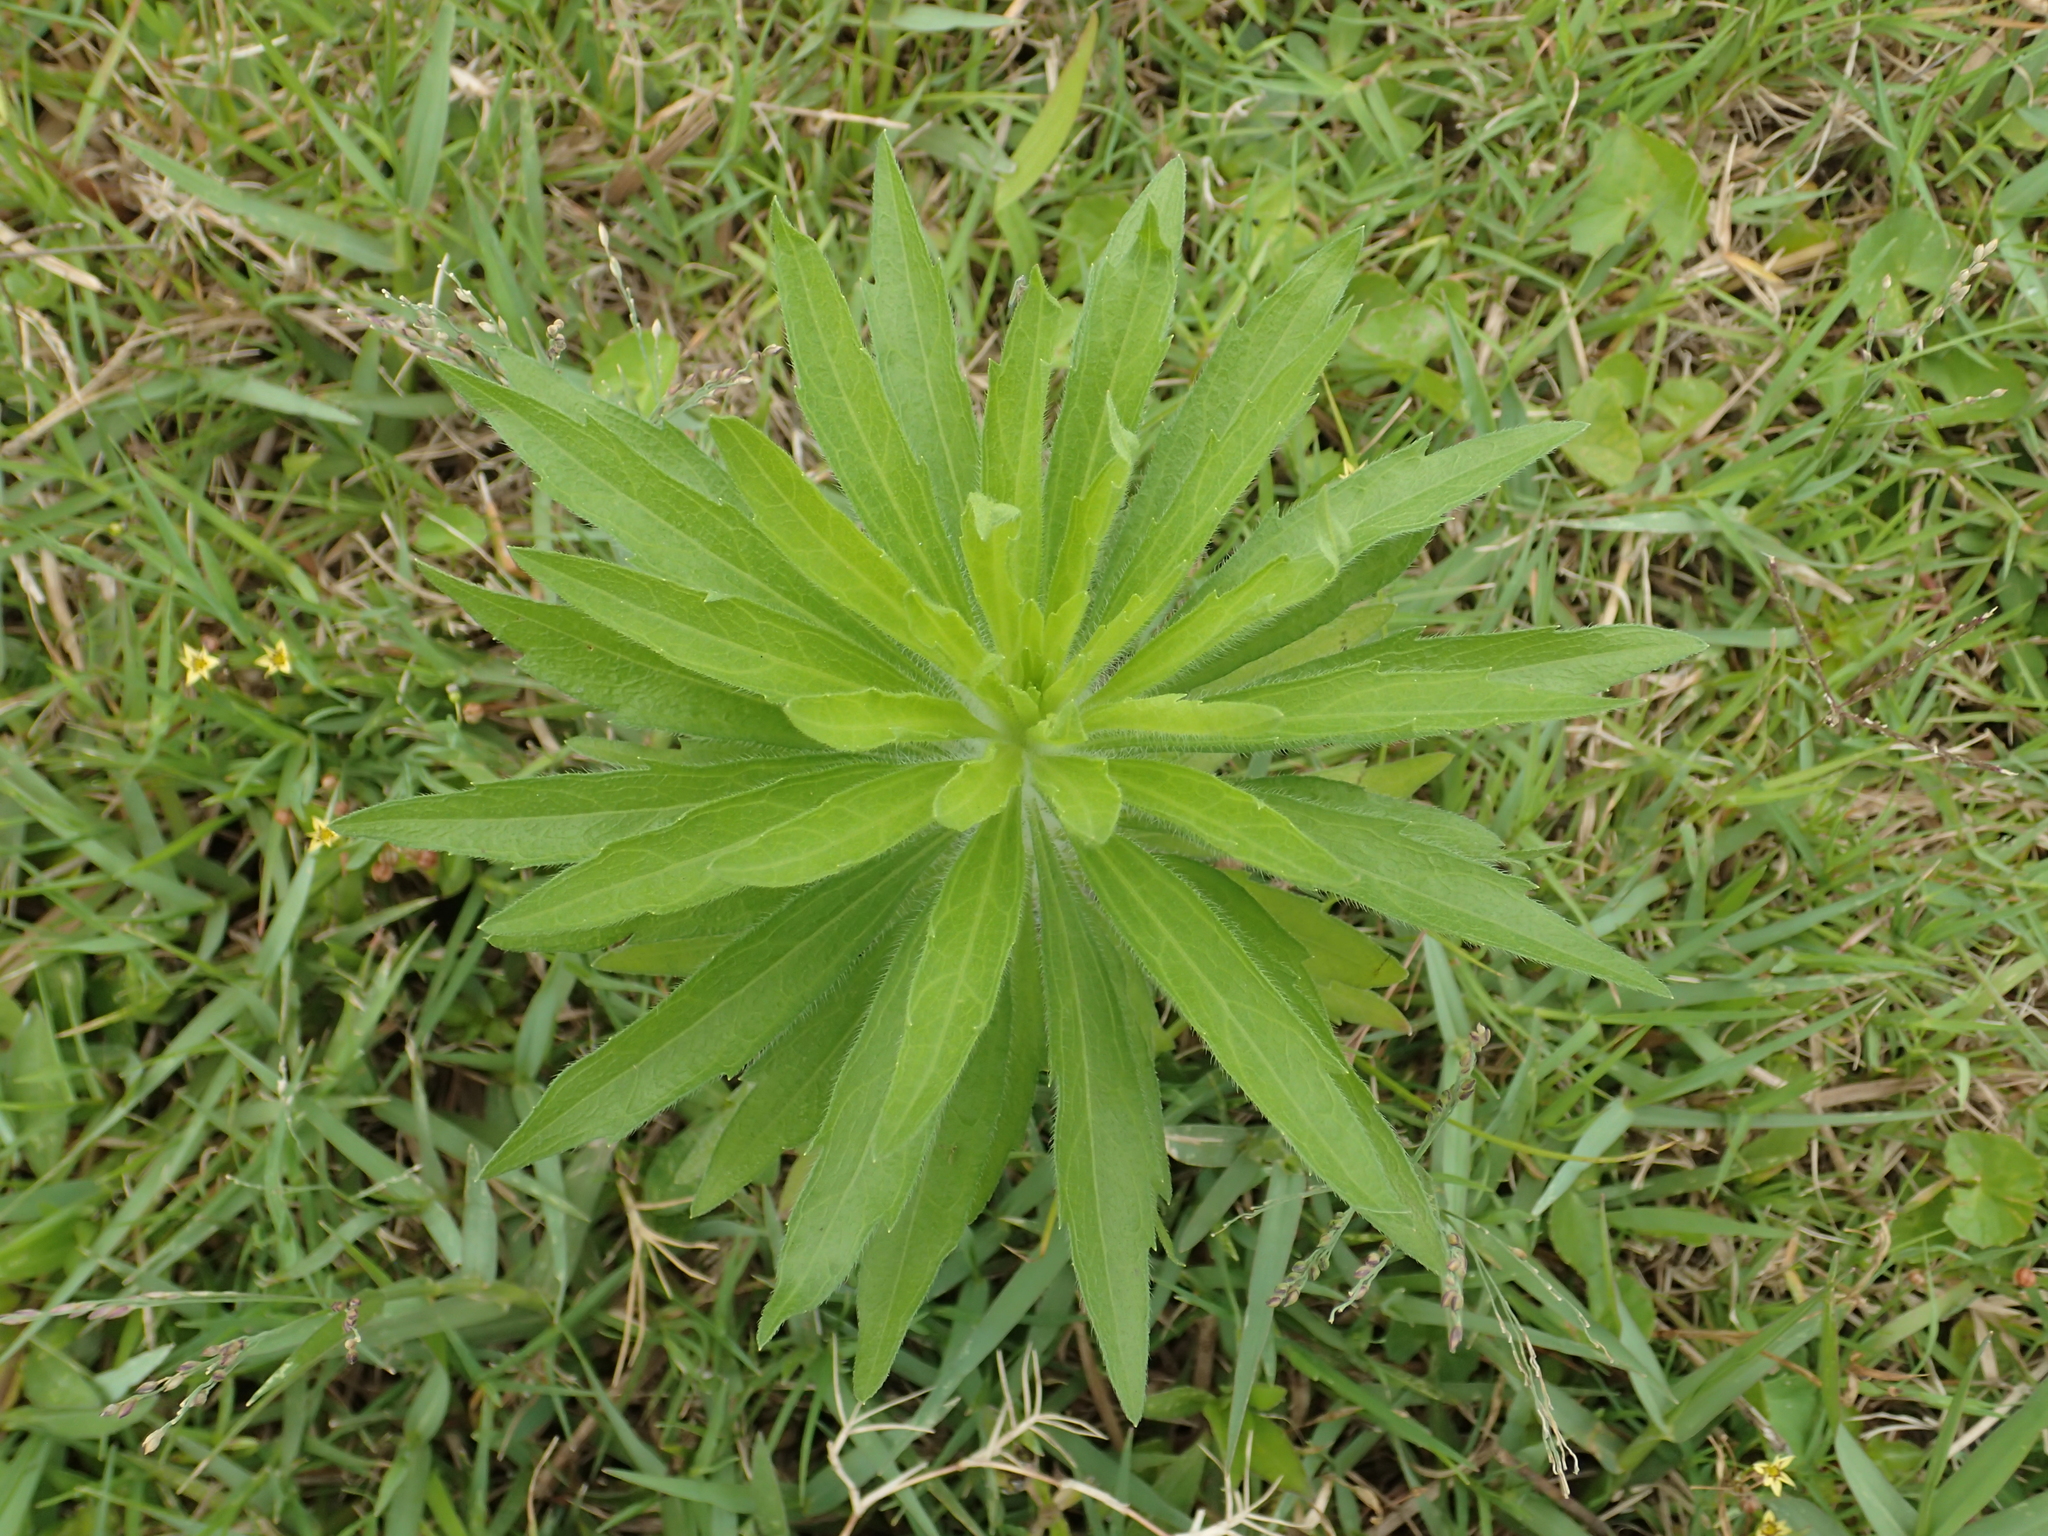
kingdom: Plantae
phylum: Tracheophyta
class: Magnoliopsida
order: Asterales
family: Asteraceae
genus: Erigeron
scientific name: Erigeron sumatrensis
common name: Daisy
